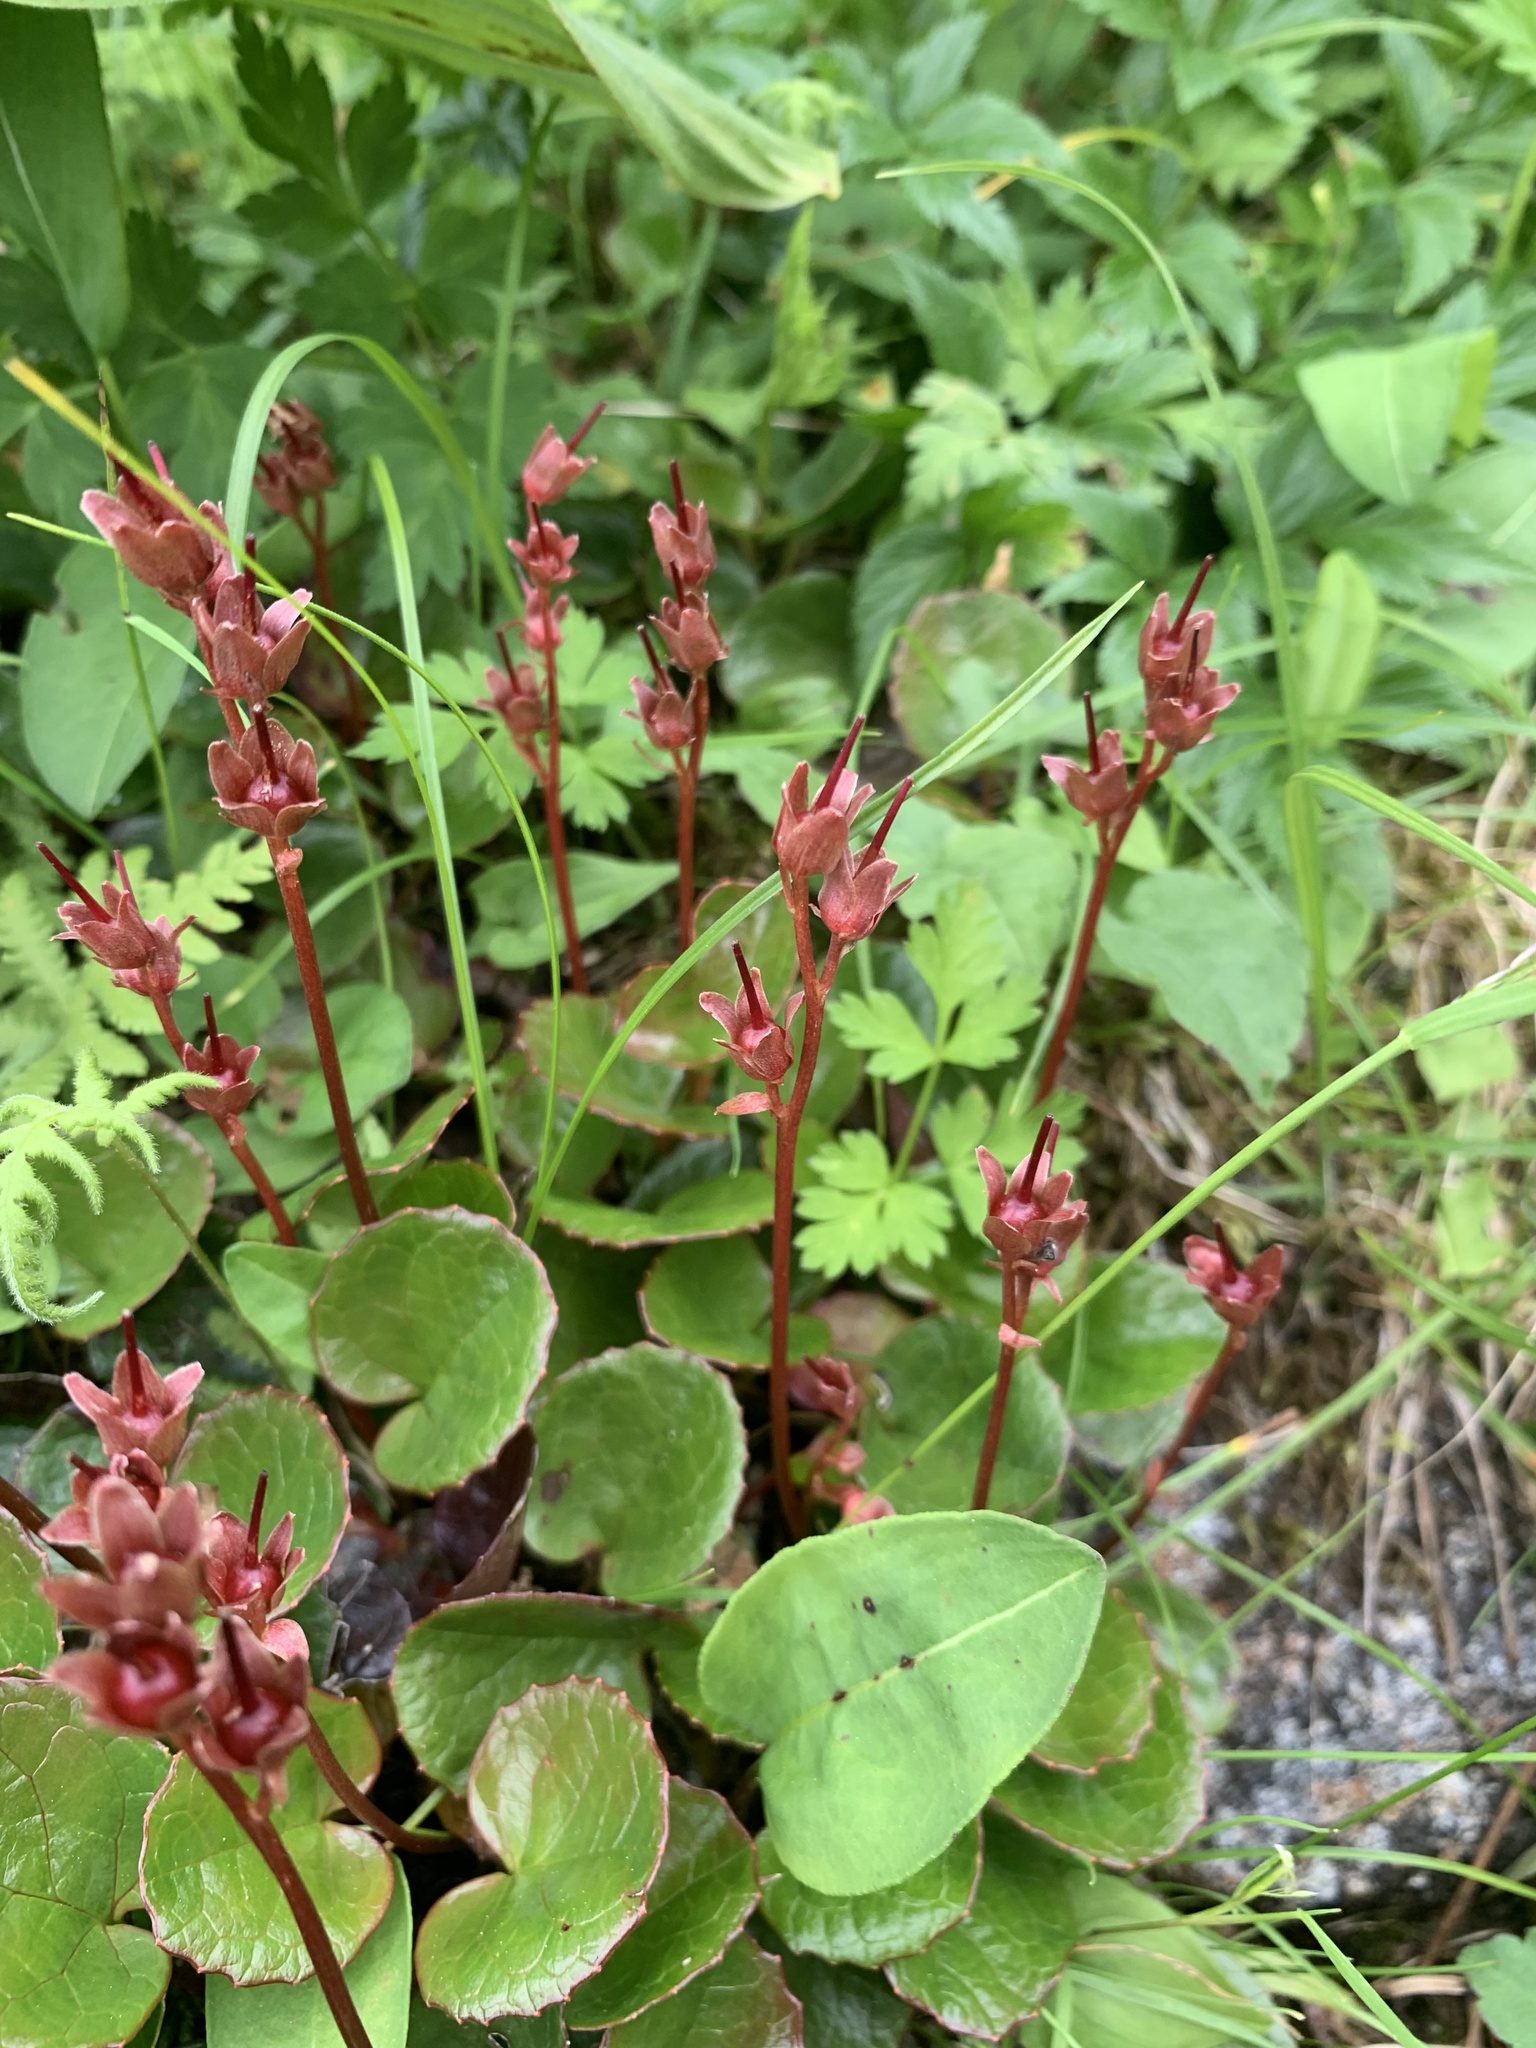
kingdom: Plantae
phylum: Tracheophyta
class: Magnoliopsida
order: Ericales
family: Diapensiaceae
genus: Schizocodon
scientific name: Schizocodon soldanelloides
